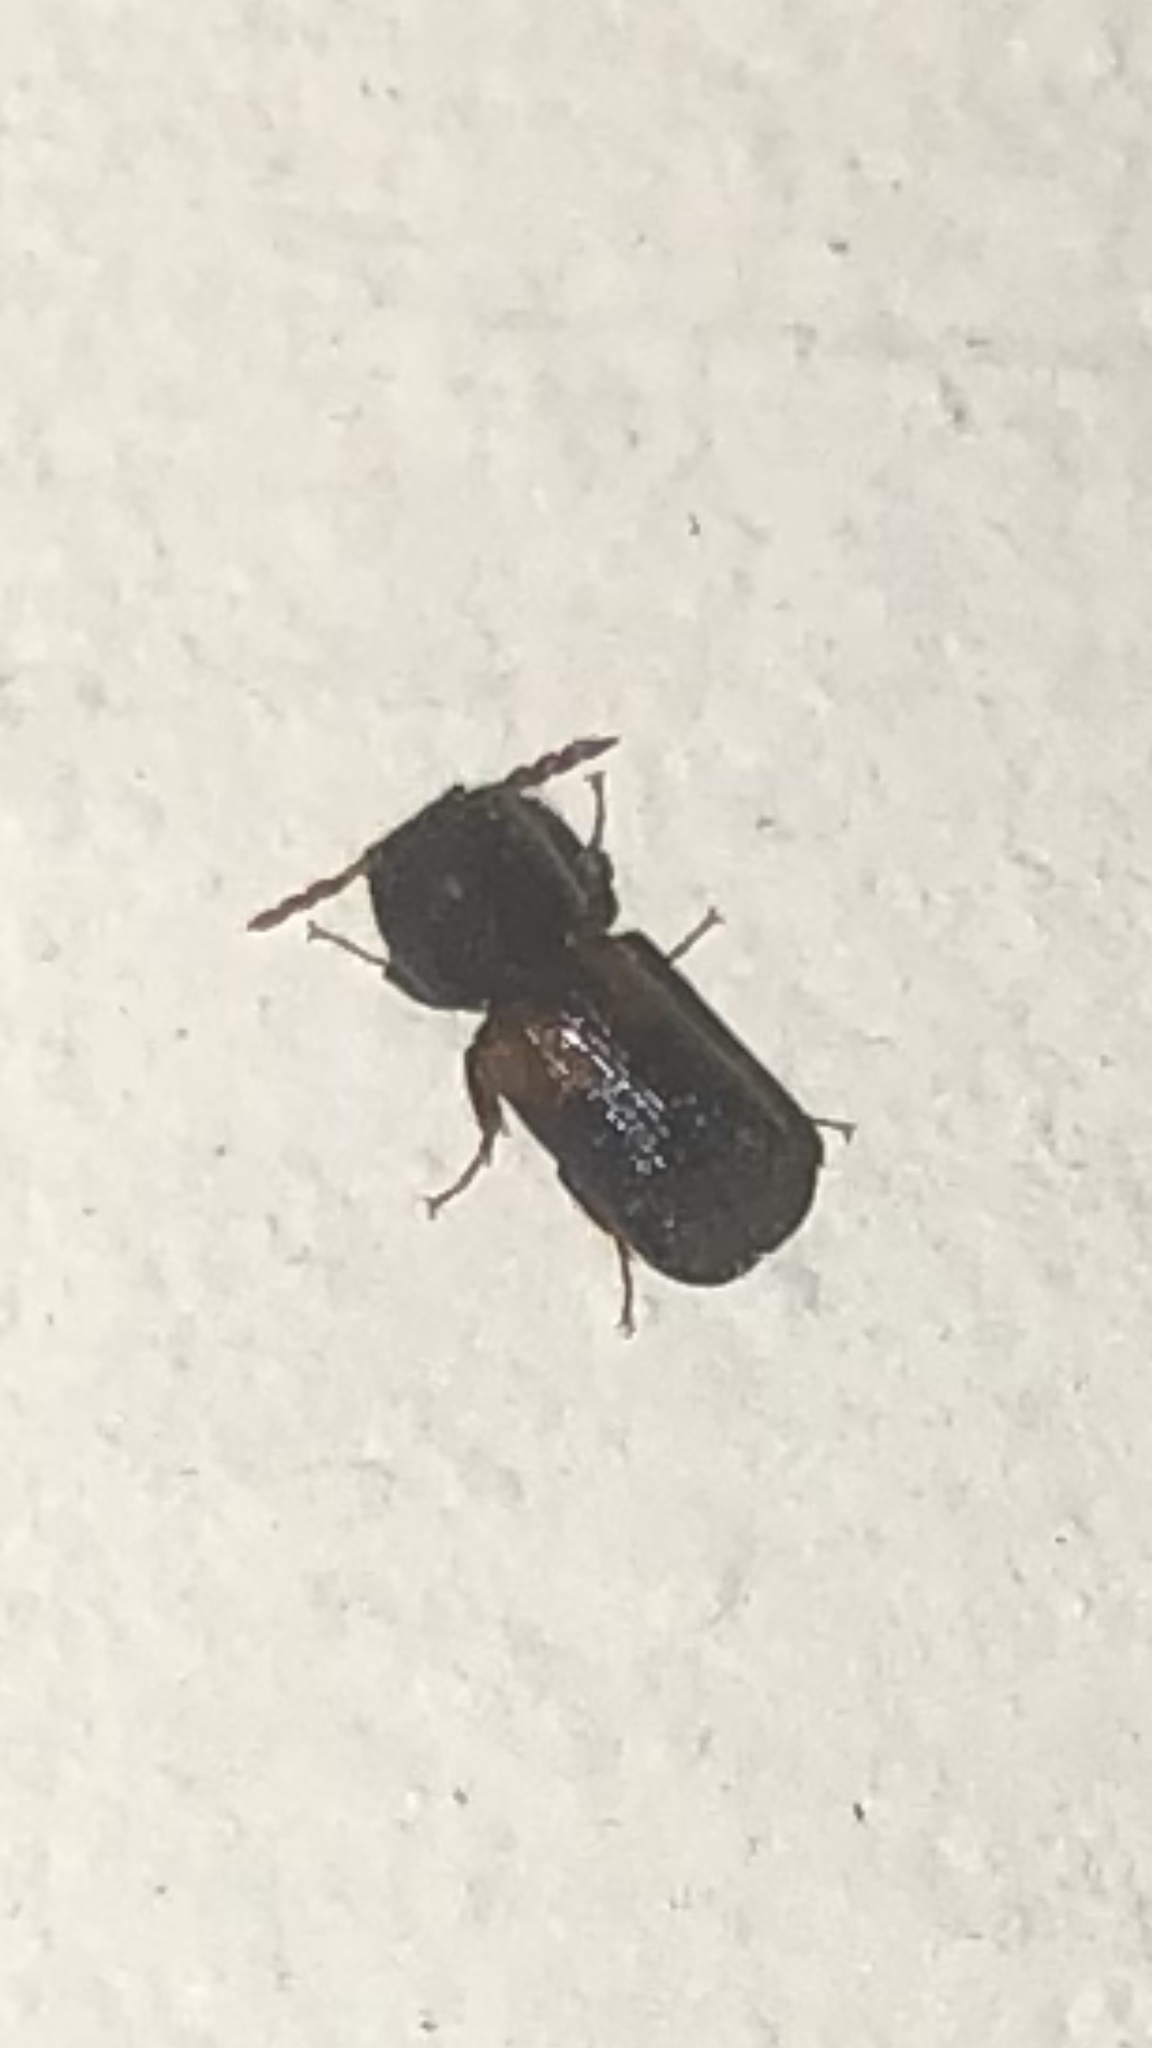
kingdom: Animalia
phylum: Arthropoda
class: Insecta
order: Coleoptera
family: Bostrichidae
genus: Xylobiops
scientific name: Xylobiops basilaris
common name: Red-shouldered bostrichid
